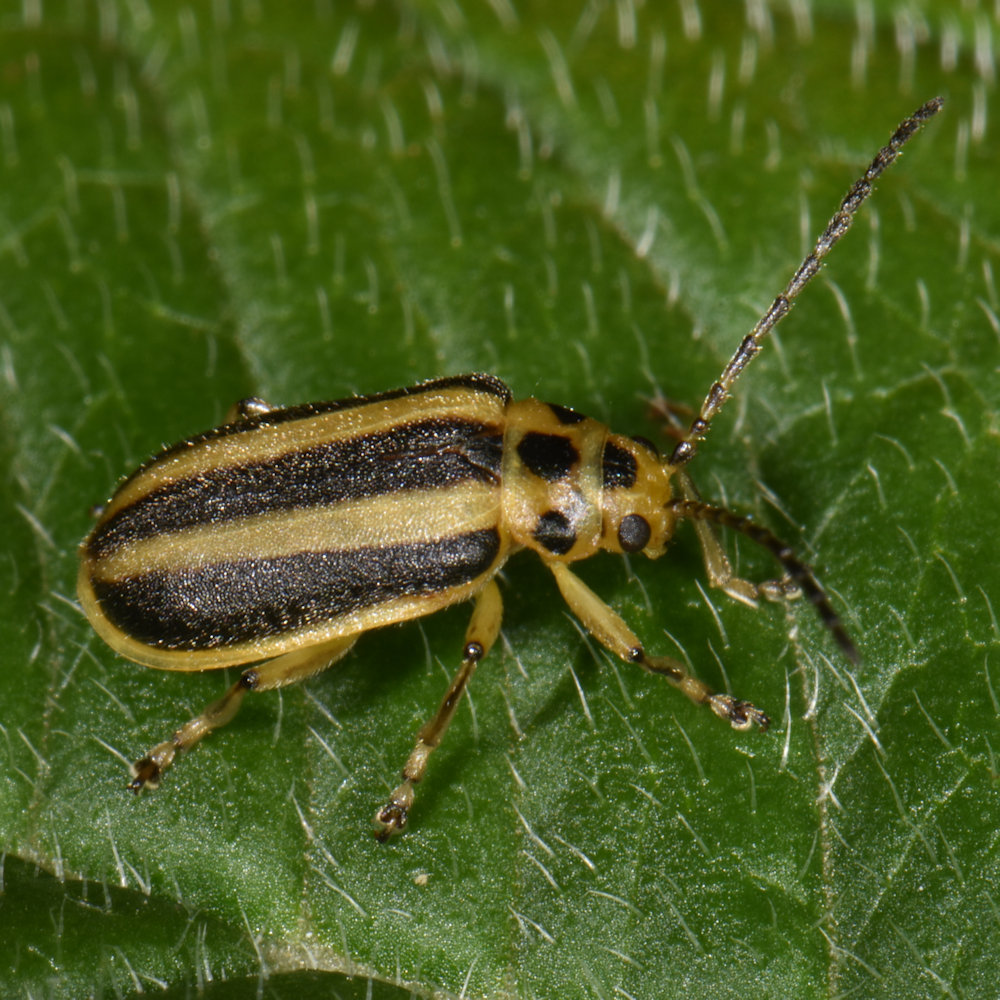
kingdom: Animalia
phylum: Arthropoda
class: Insecta
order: Coleoptera
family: Chrysomelidae
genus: Trirhabda
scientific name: Trirhabda canadensis
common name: Goldenrod leaf beetle
